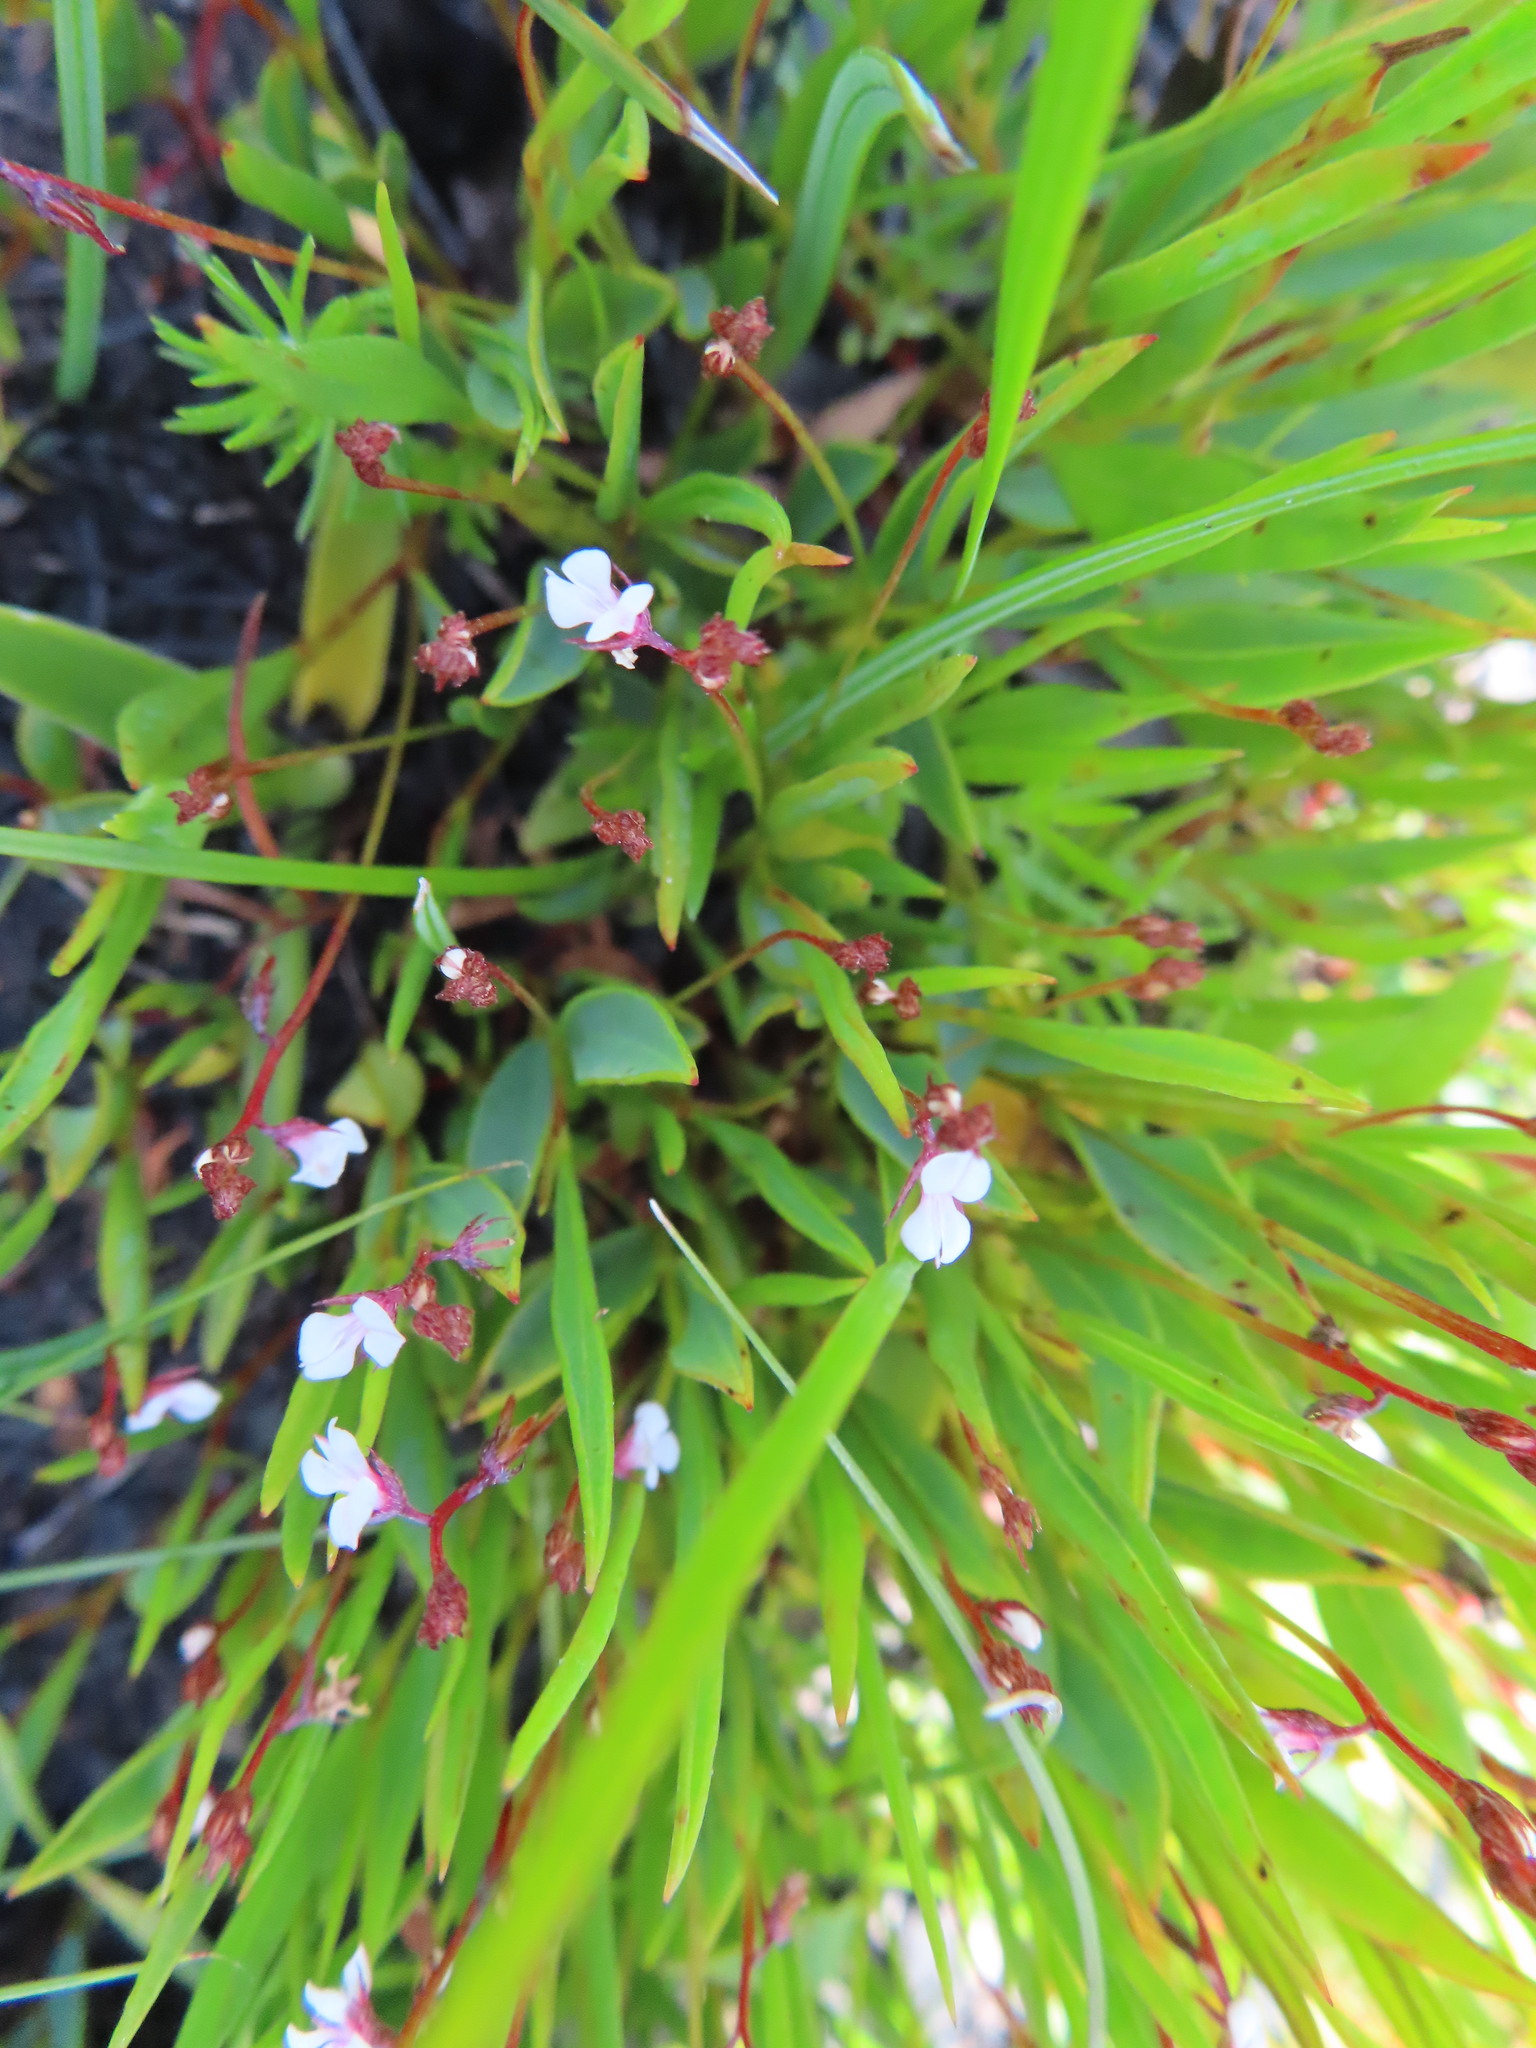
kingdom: Plantae
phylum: Tracheophyta
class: Magnoliopsida
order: Fabales
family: Fabaceae
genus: Indigofera
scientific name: Indigofera guthriei
